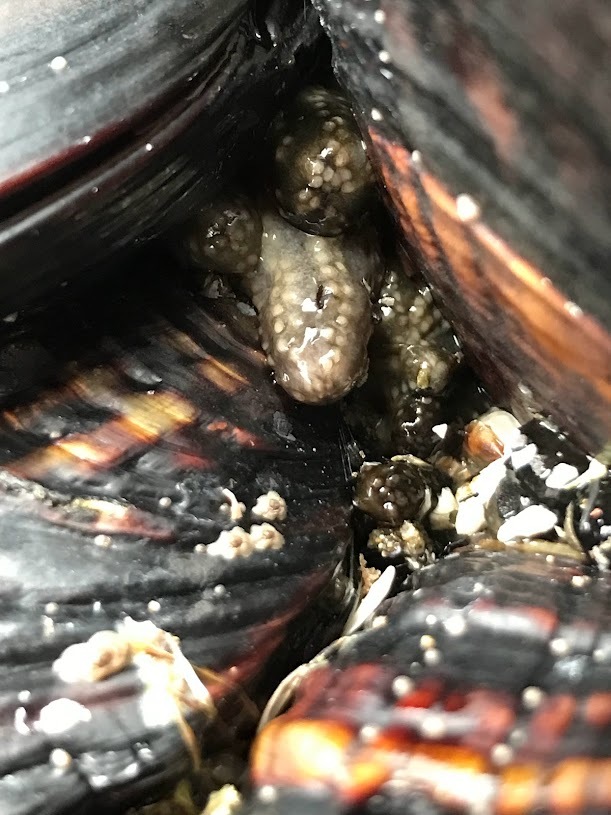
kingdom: Animalia
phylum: Echinodermata
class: Holothuroidea
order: Dendrochirotida
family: Cucumariidae
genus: Cucumaria
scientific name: Cucumaria pseudocurata
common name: Tar spot sea cucumber
